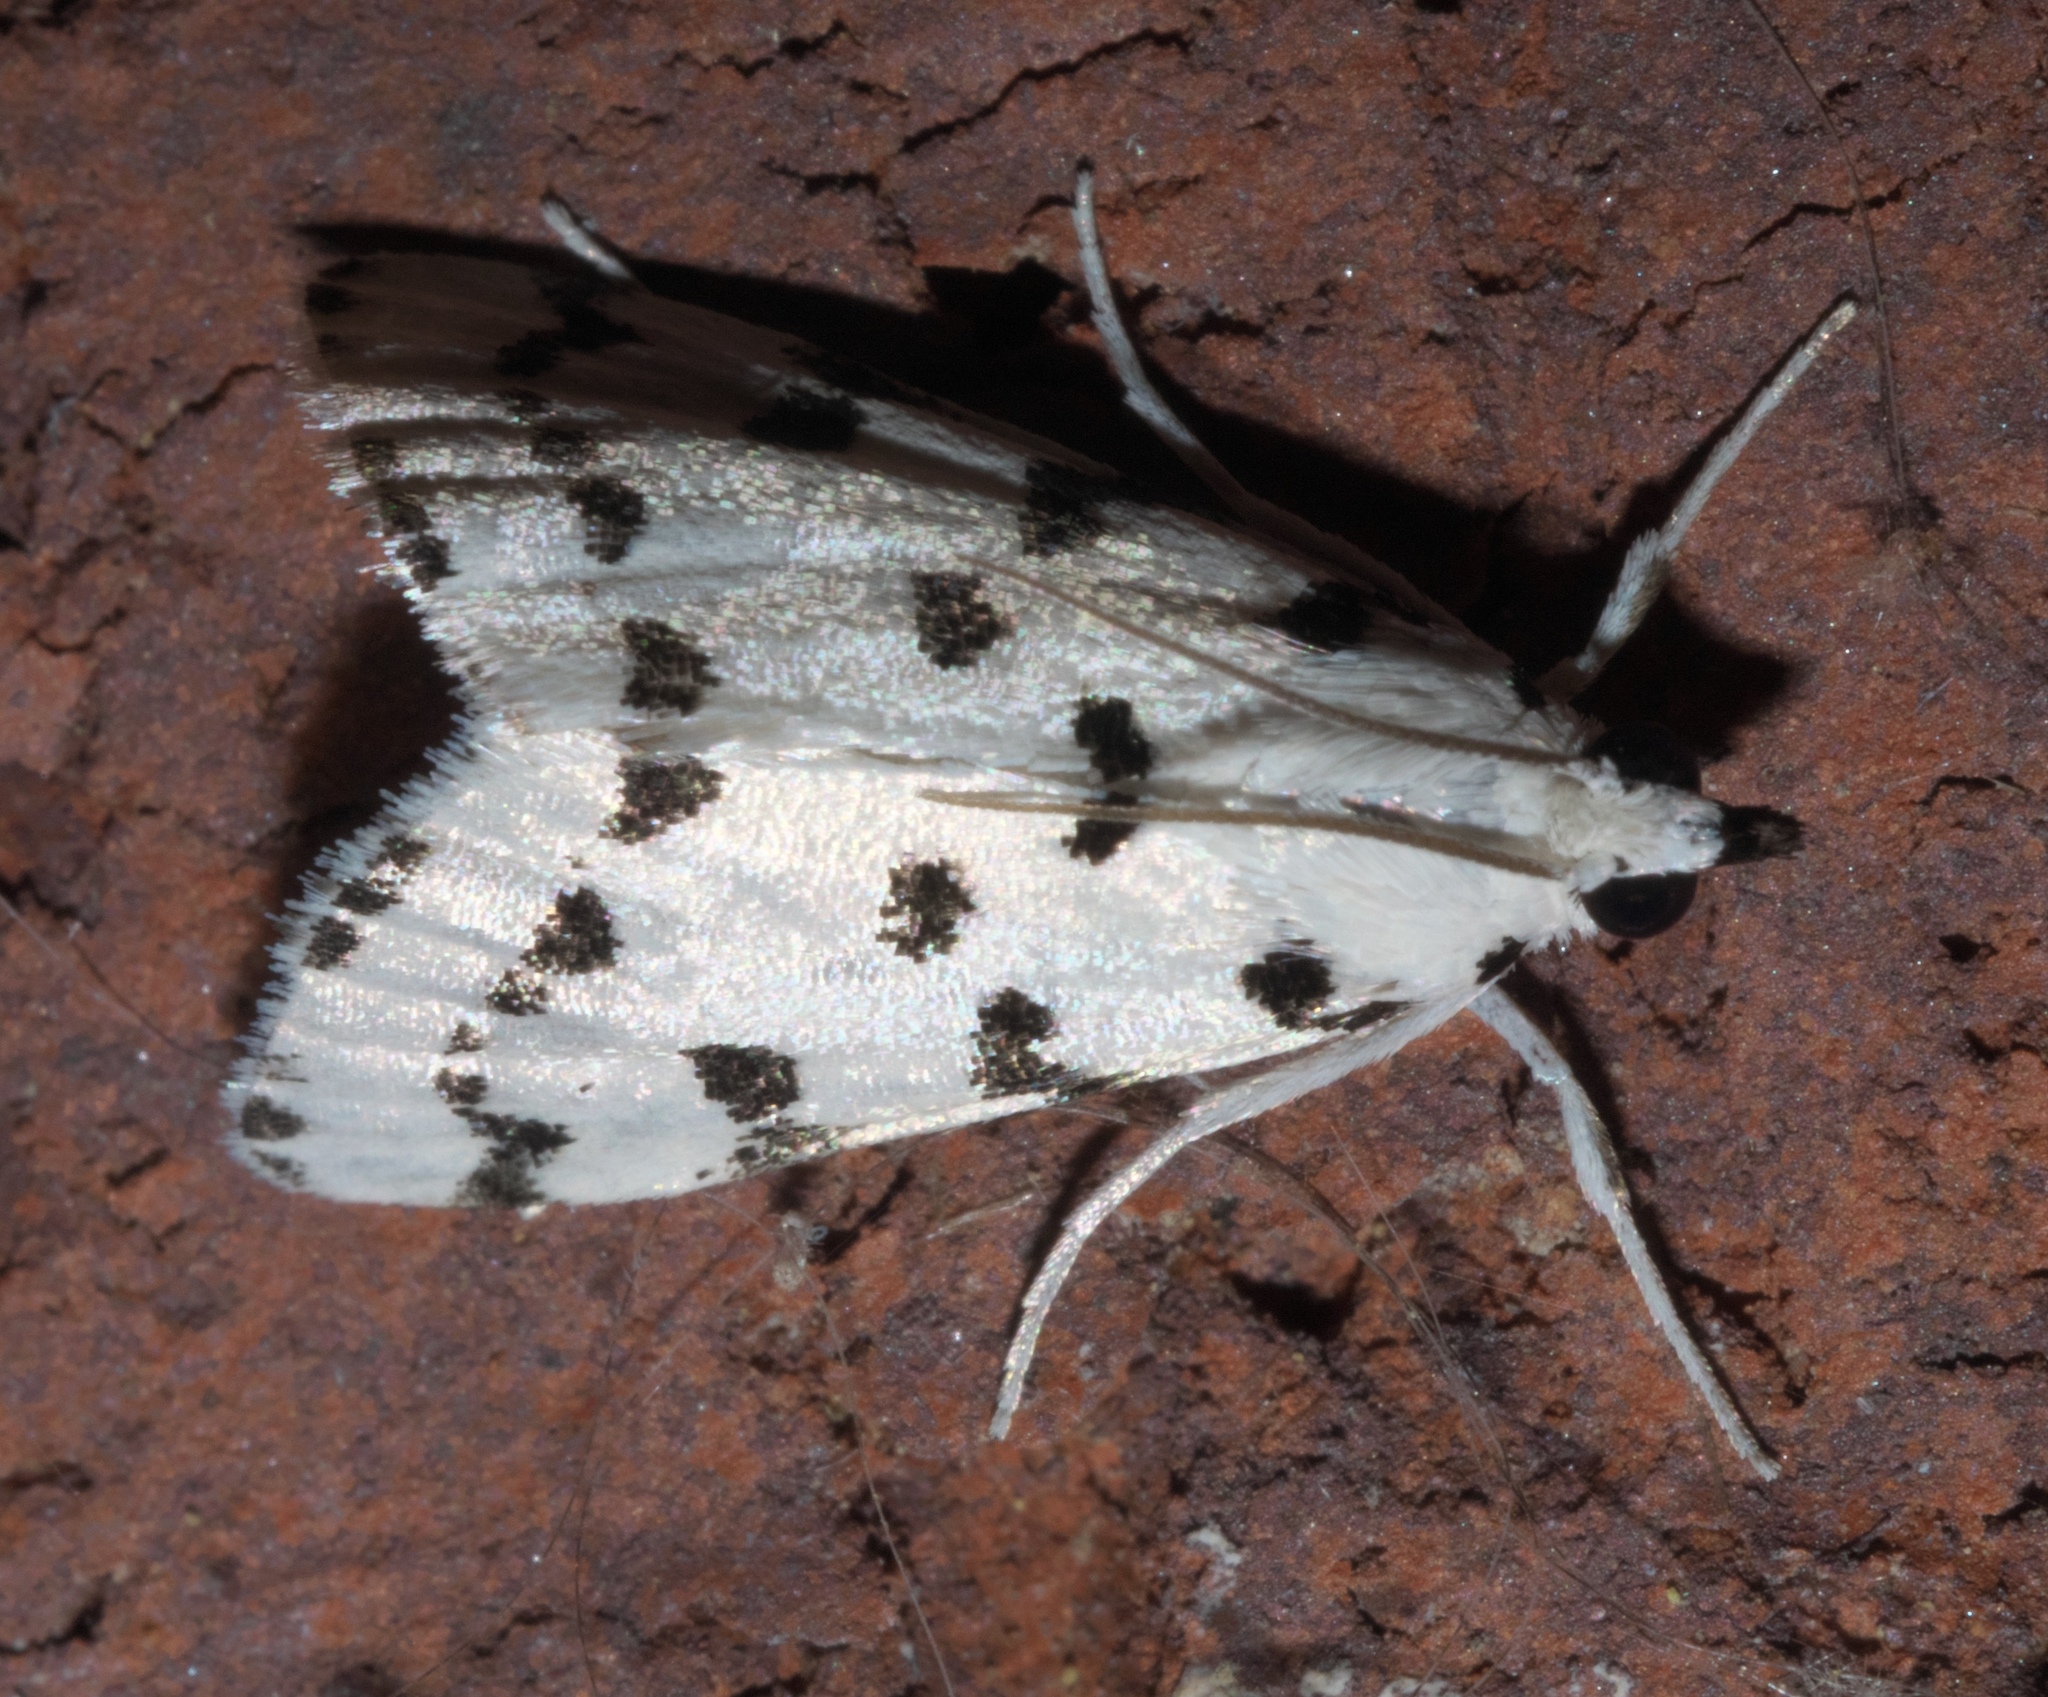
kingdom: Animalia
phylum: Arthropoda
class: Insecta
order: Lepidoptera
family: Crambidae
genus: Eustixia
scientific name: Eustixia pupula
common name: American cabbage pearl
